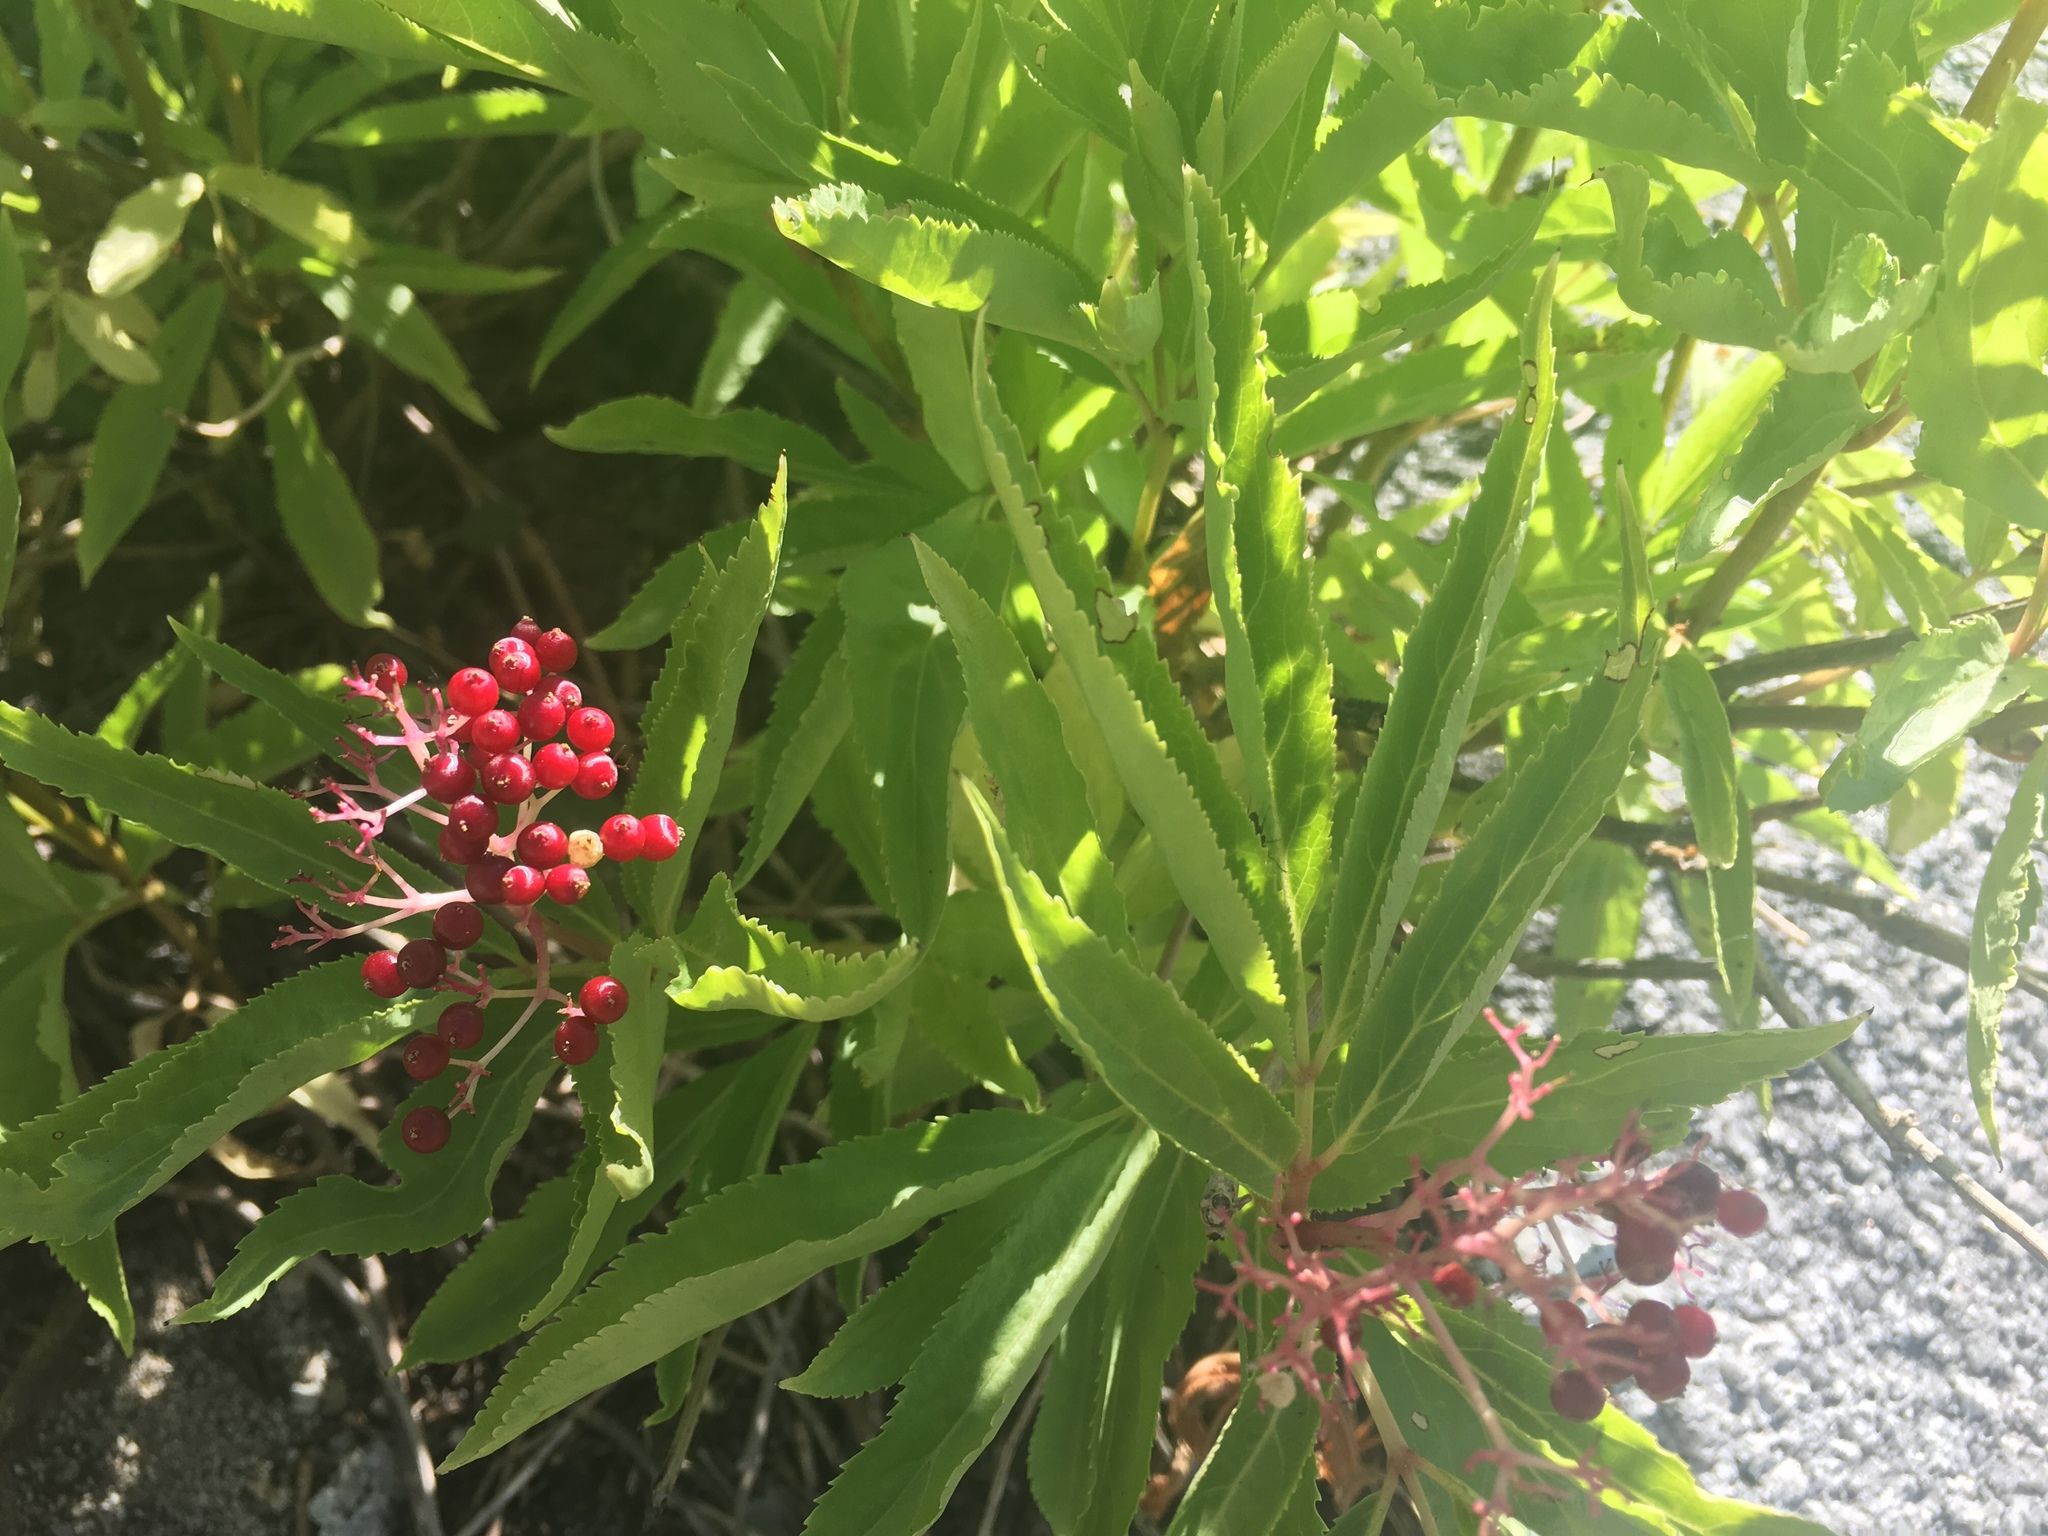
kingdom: Plantae
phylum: Tracheophyta
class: Magnoliopsida
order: Dipsacales
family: Viburnaceae
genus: Sambucus
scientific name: Sambucus racemosa
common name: Red-berried elder
